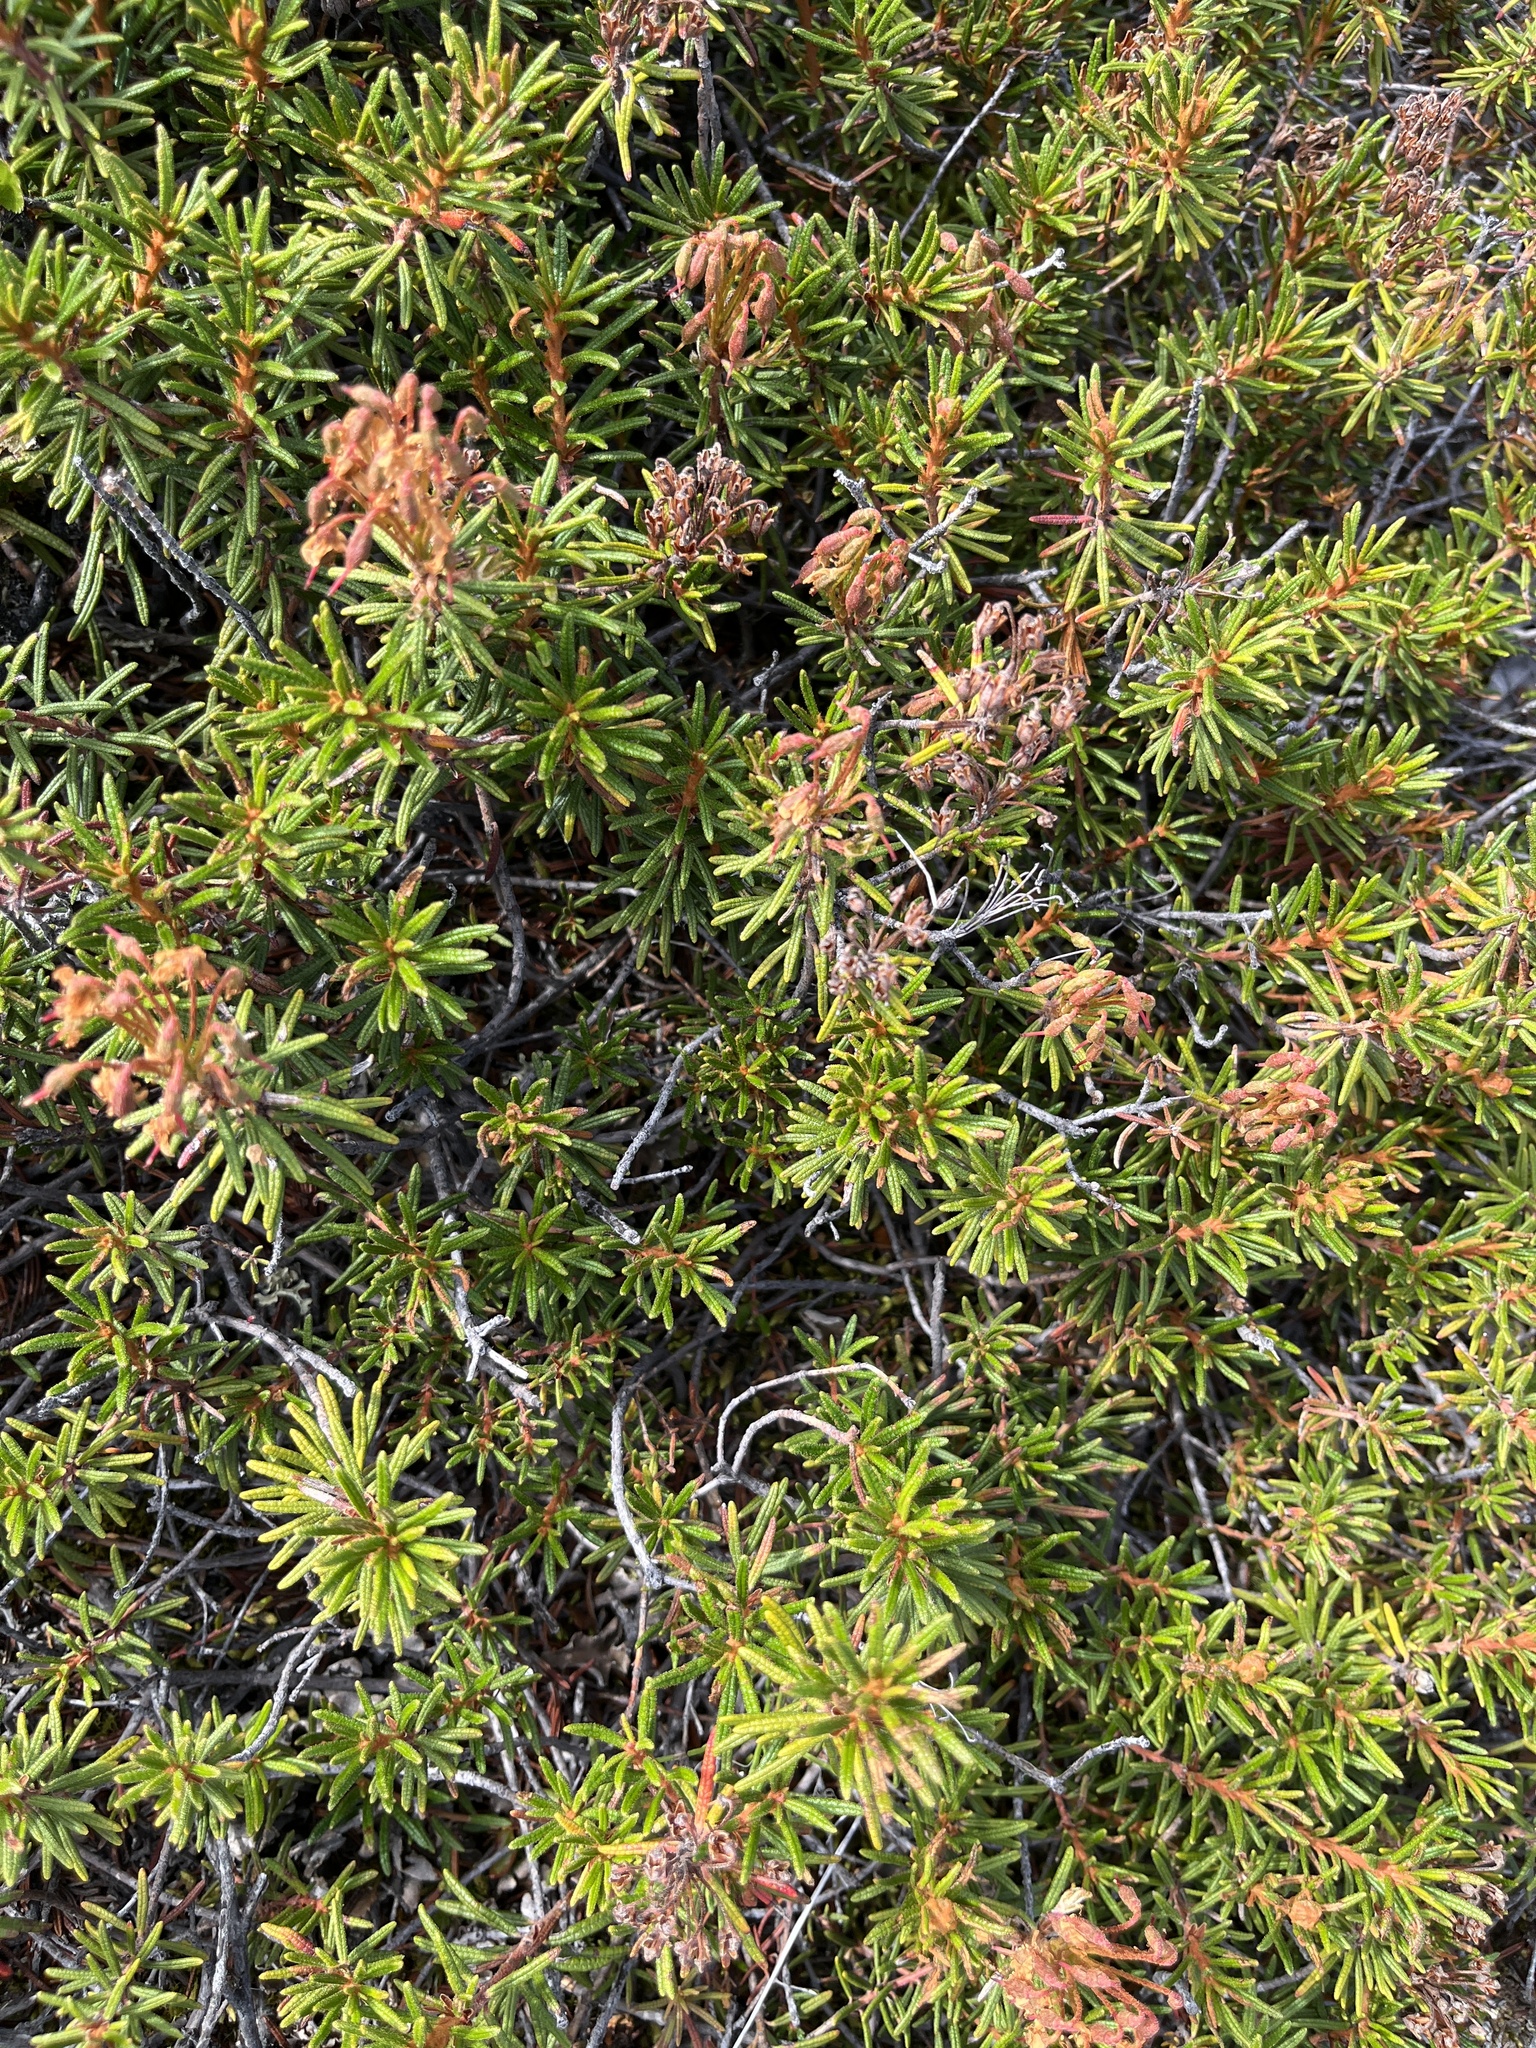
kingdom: Plantae
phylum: Tracheophyta
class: Magnoliopsida
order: Ericales
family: Ericaceae
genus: Rhododendron
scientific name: Rhododendron tomentosum
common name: Marsh labrador tea
